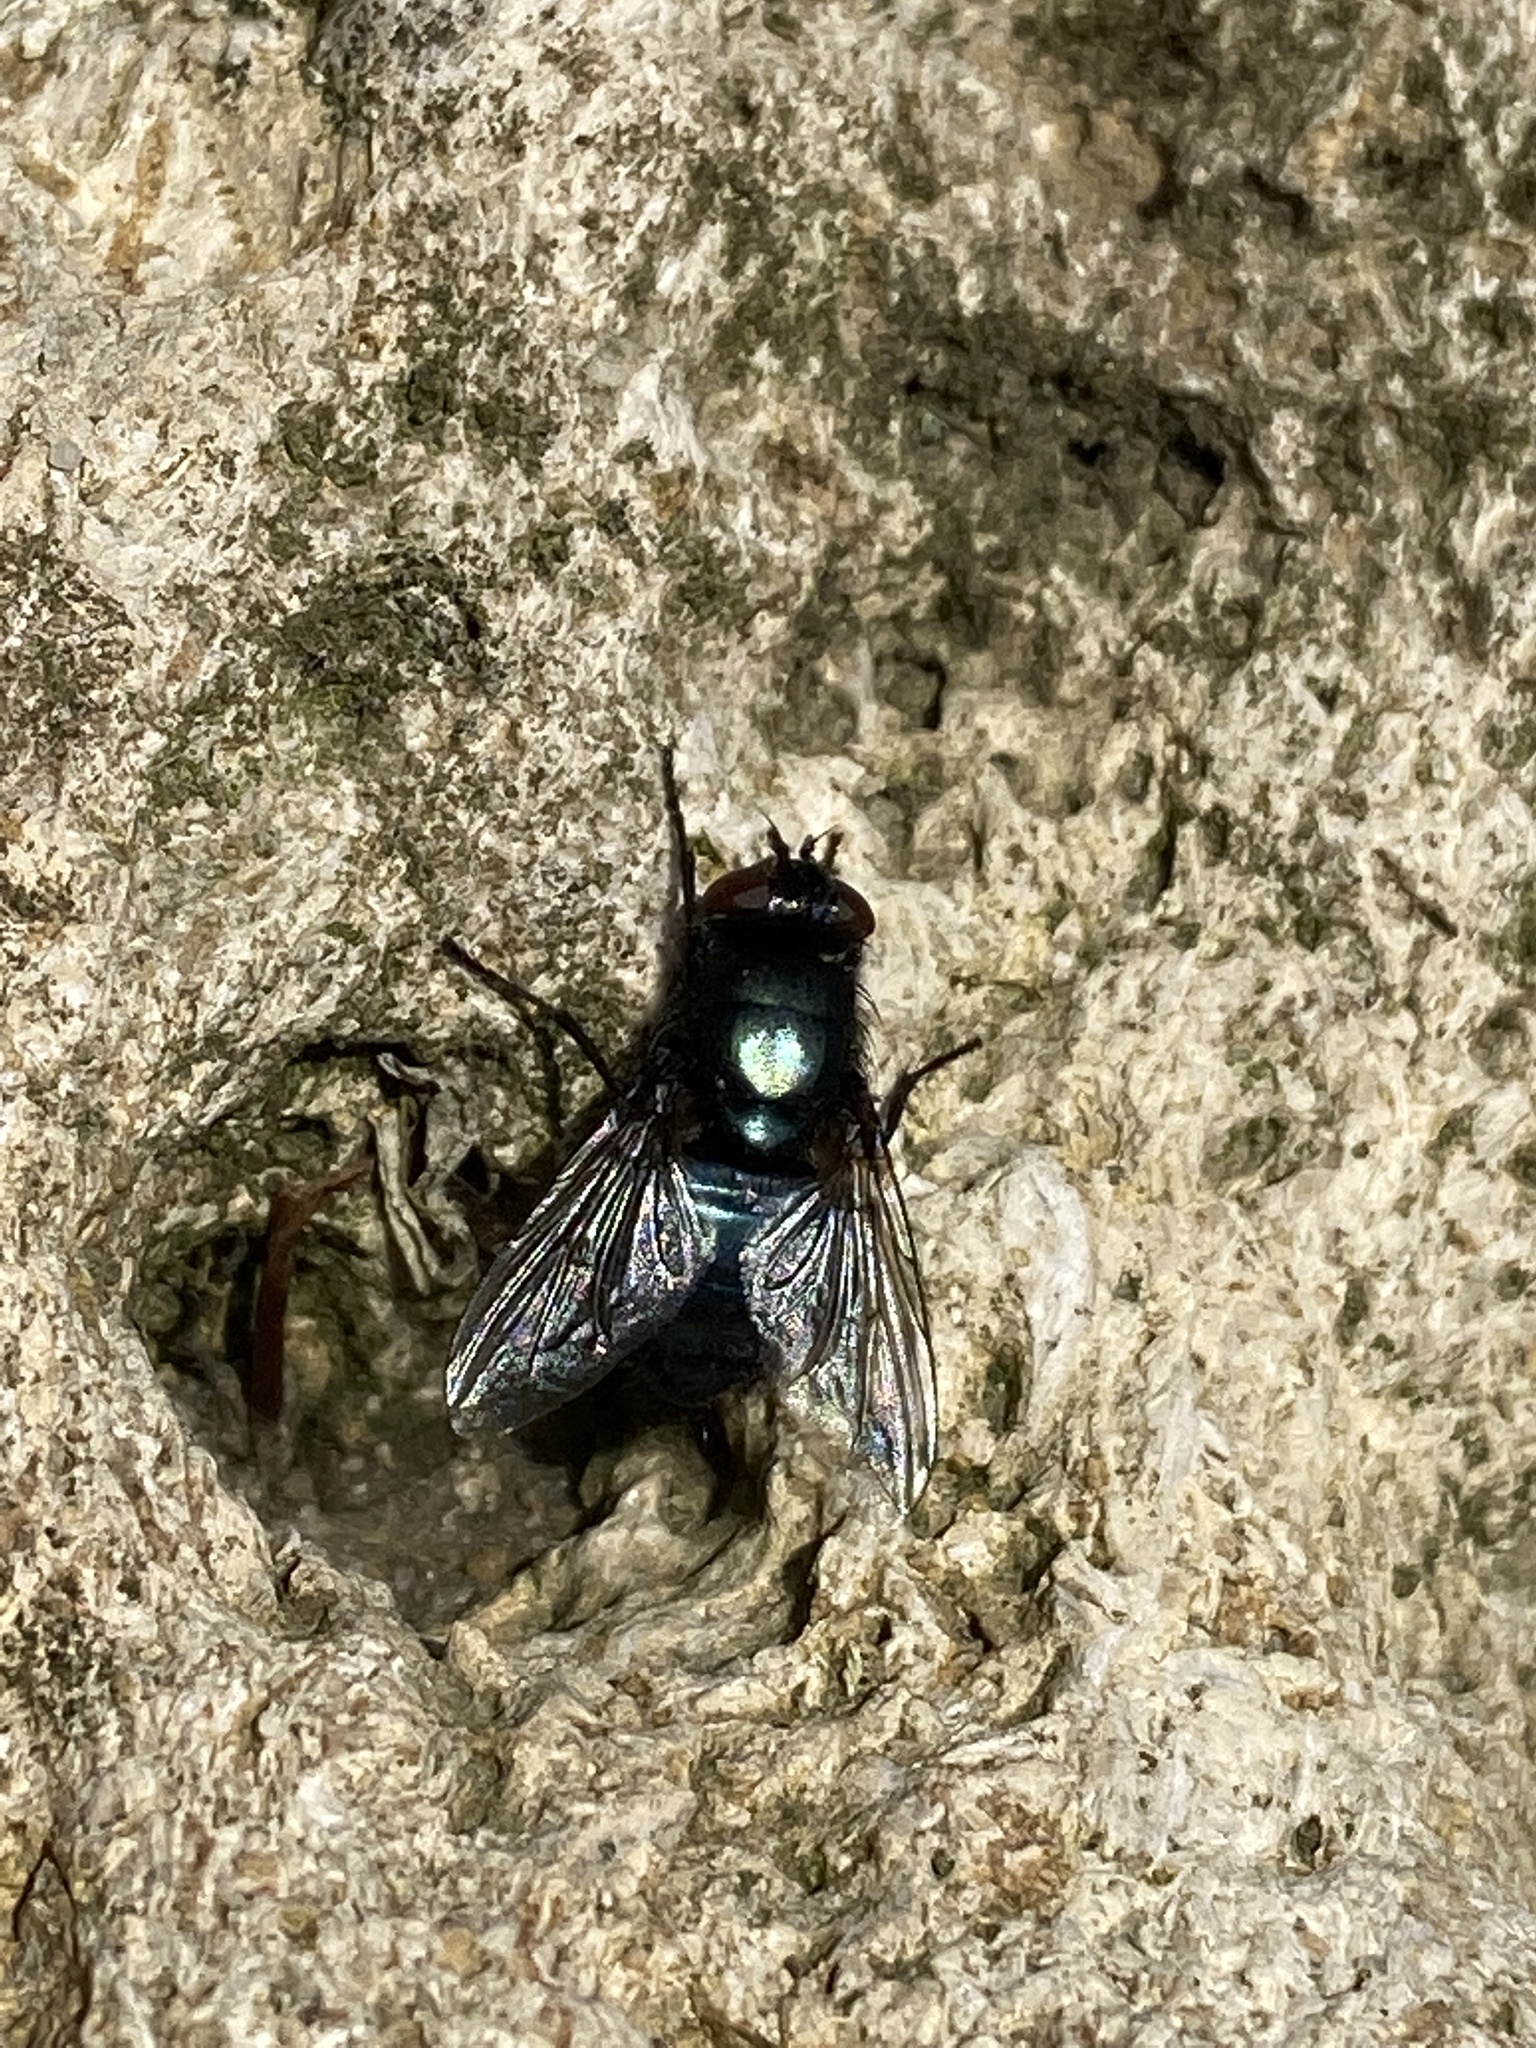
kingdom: Animalia
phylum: Arthropoda
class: Insecta
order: Diptera
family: Calliphoridae
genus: Protophormia
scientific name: Protophormia terraenovae
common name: Blackbottle
